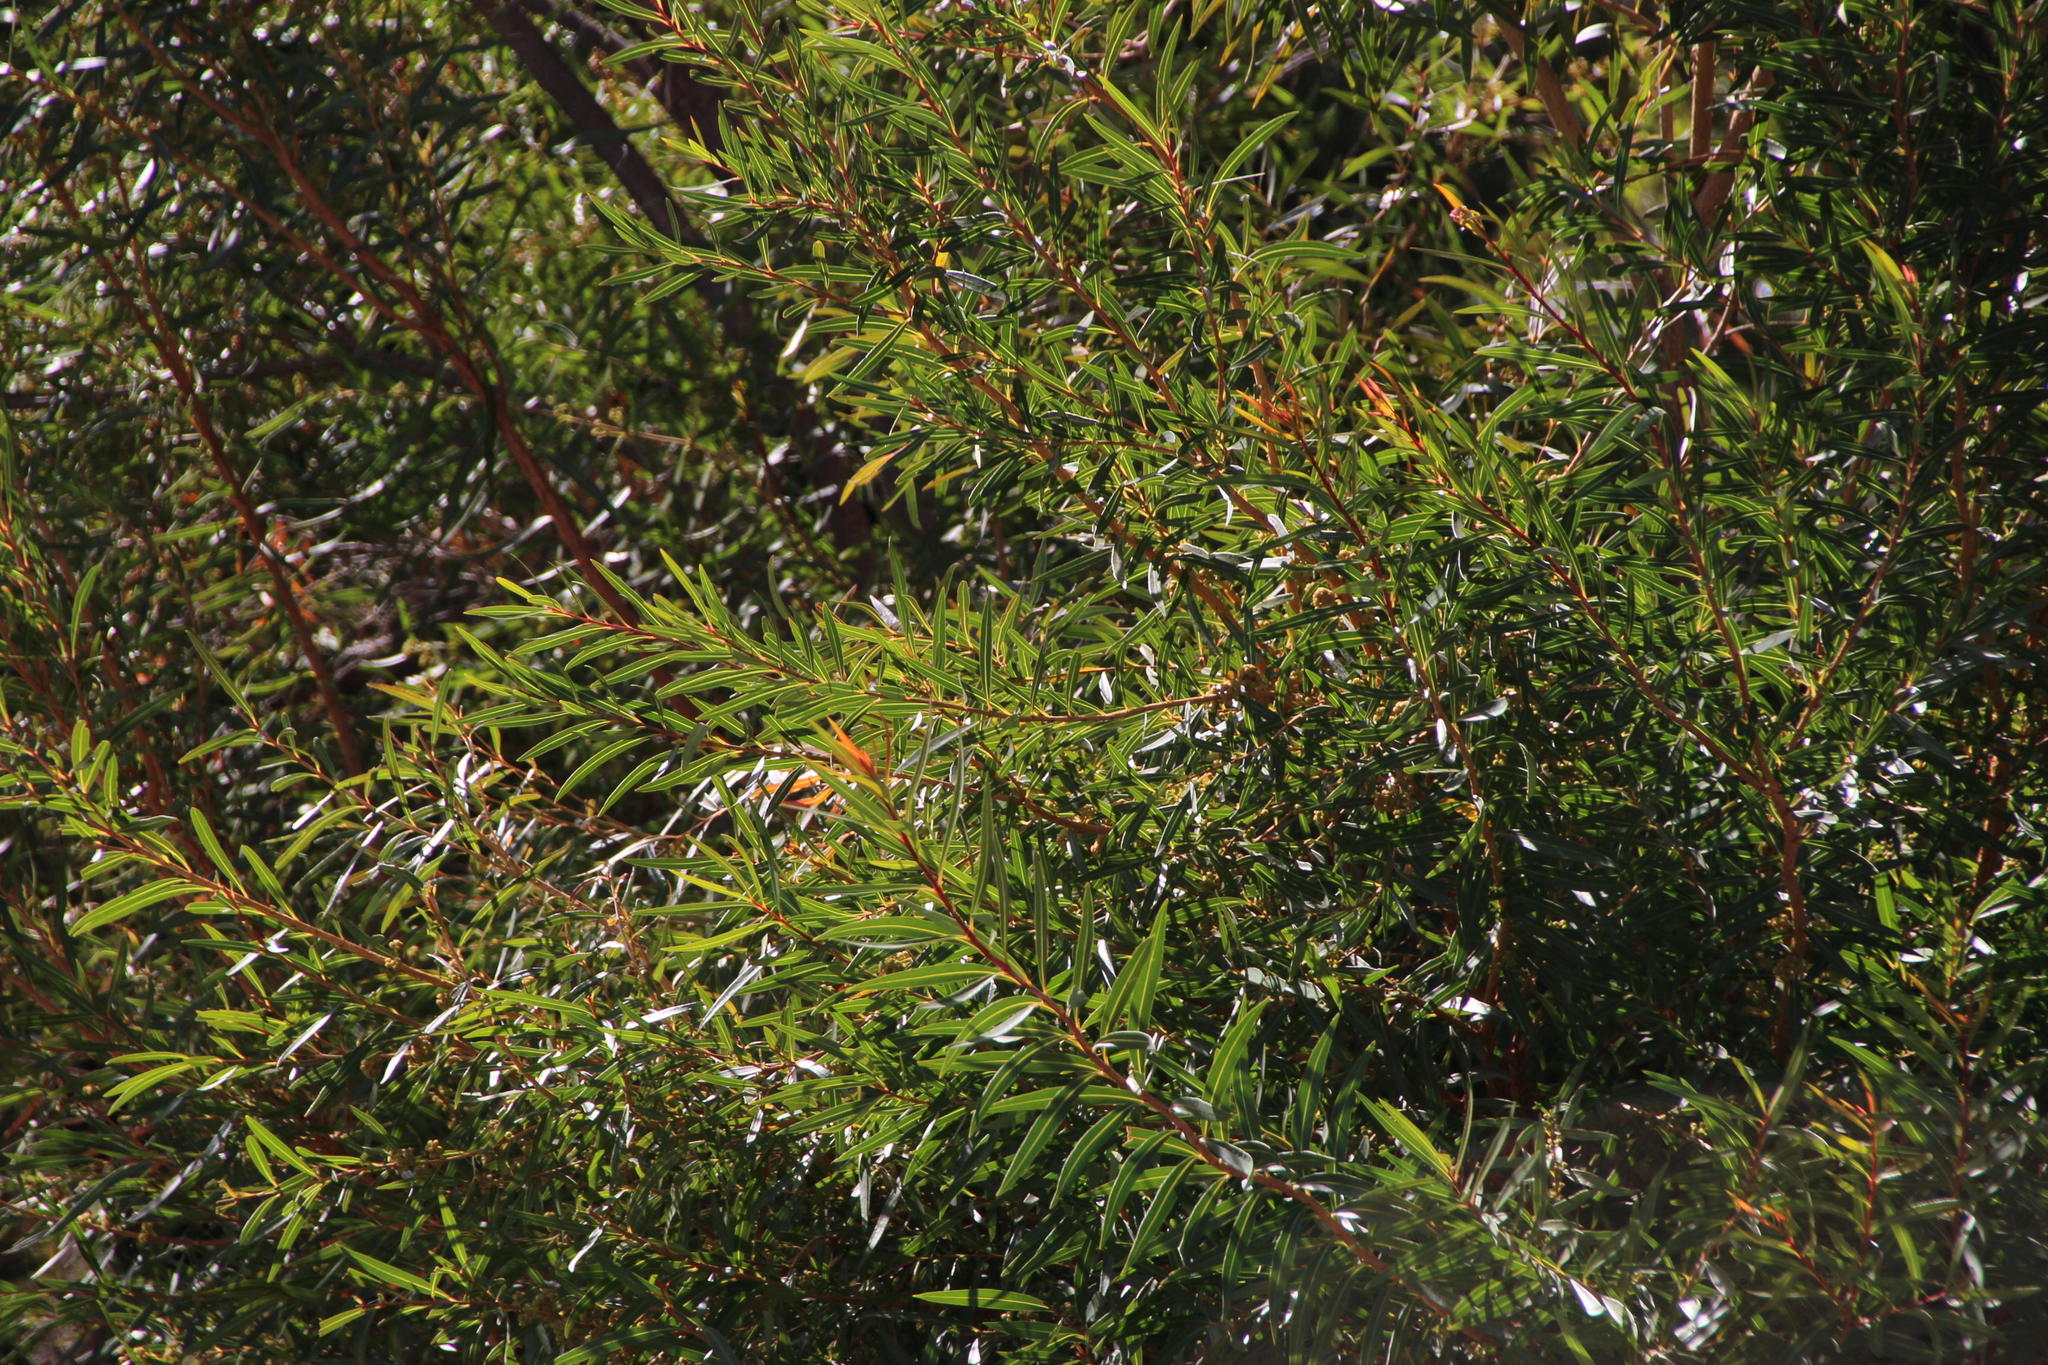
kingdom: Plantae
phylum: Tracheophyta
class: Magnoliopsida
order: Myrtales
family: Myrtaceae
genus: Callistemon
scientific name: Callistemon lanceolatus
